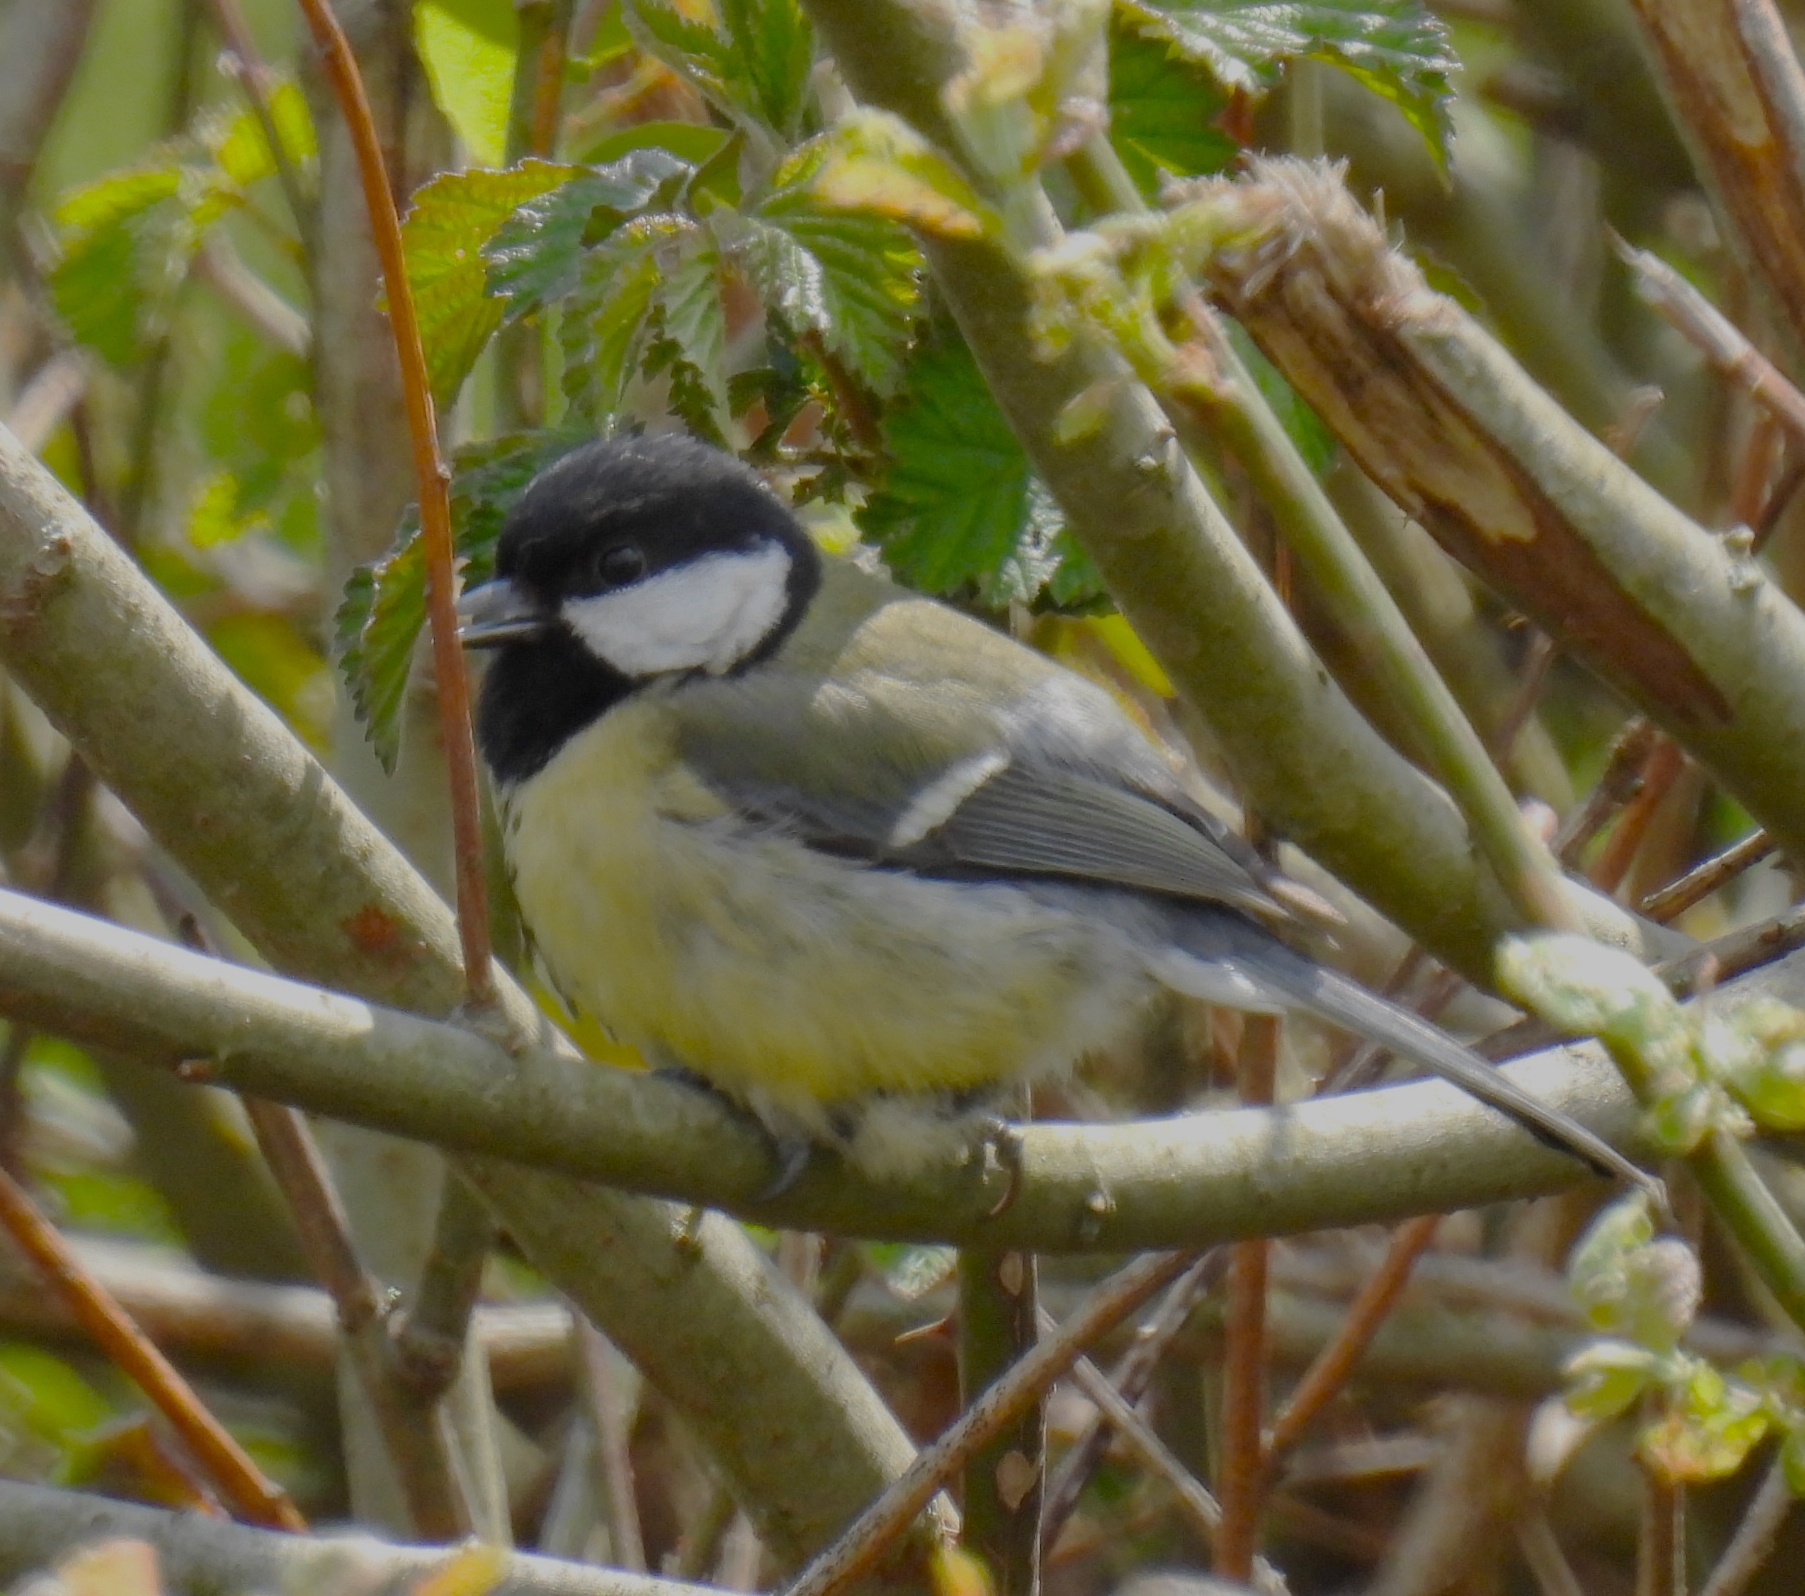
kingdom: Animalia
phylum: Chordata
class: Aves
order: Passeriformes
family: Paridae
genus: Parus
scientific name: Parus major
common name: Great tit
